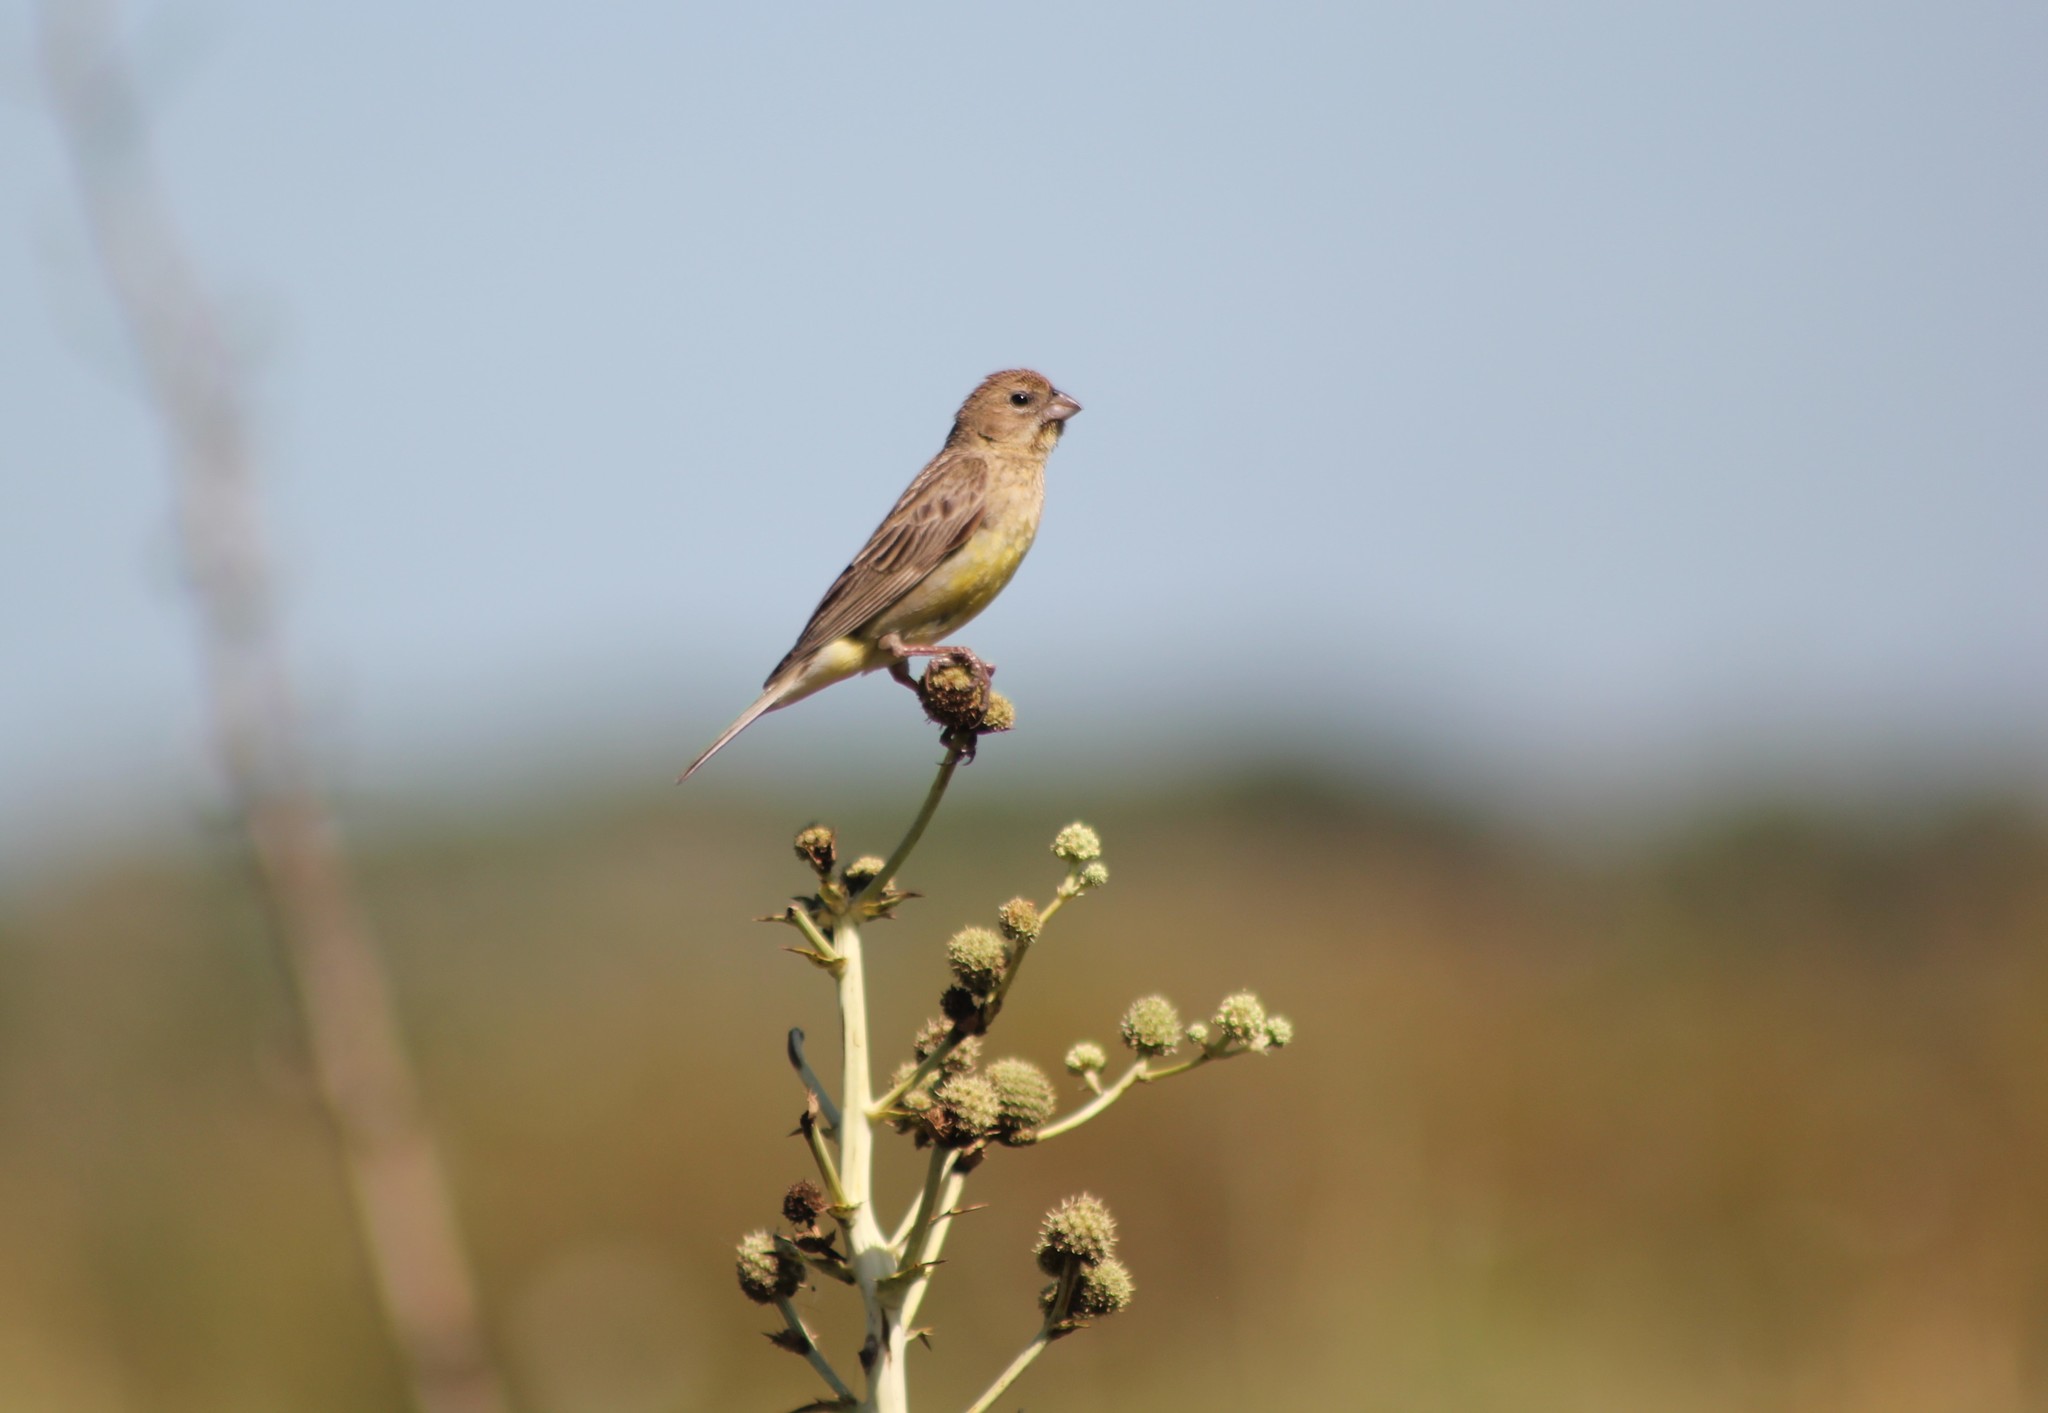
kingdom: Animalia
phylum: Chordata
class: Aves
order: Passeriformes
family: Thraupidae
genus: Sicalis
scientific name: Sicalis luteola
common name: Grassland yellow-finch
